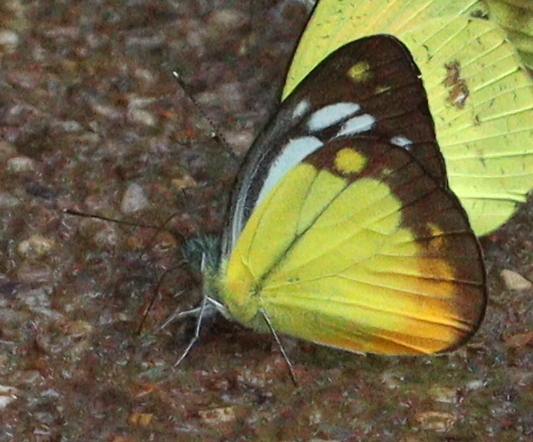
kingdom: Animalia
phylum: Arthropoda
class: Insecta
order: Lepidoptera
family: Pieridae
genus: Cepora
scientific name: Cepora iudith
